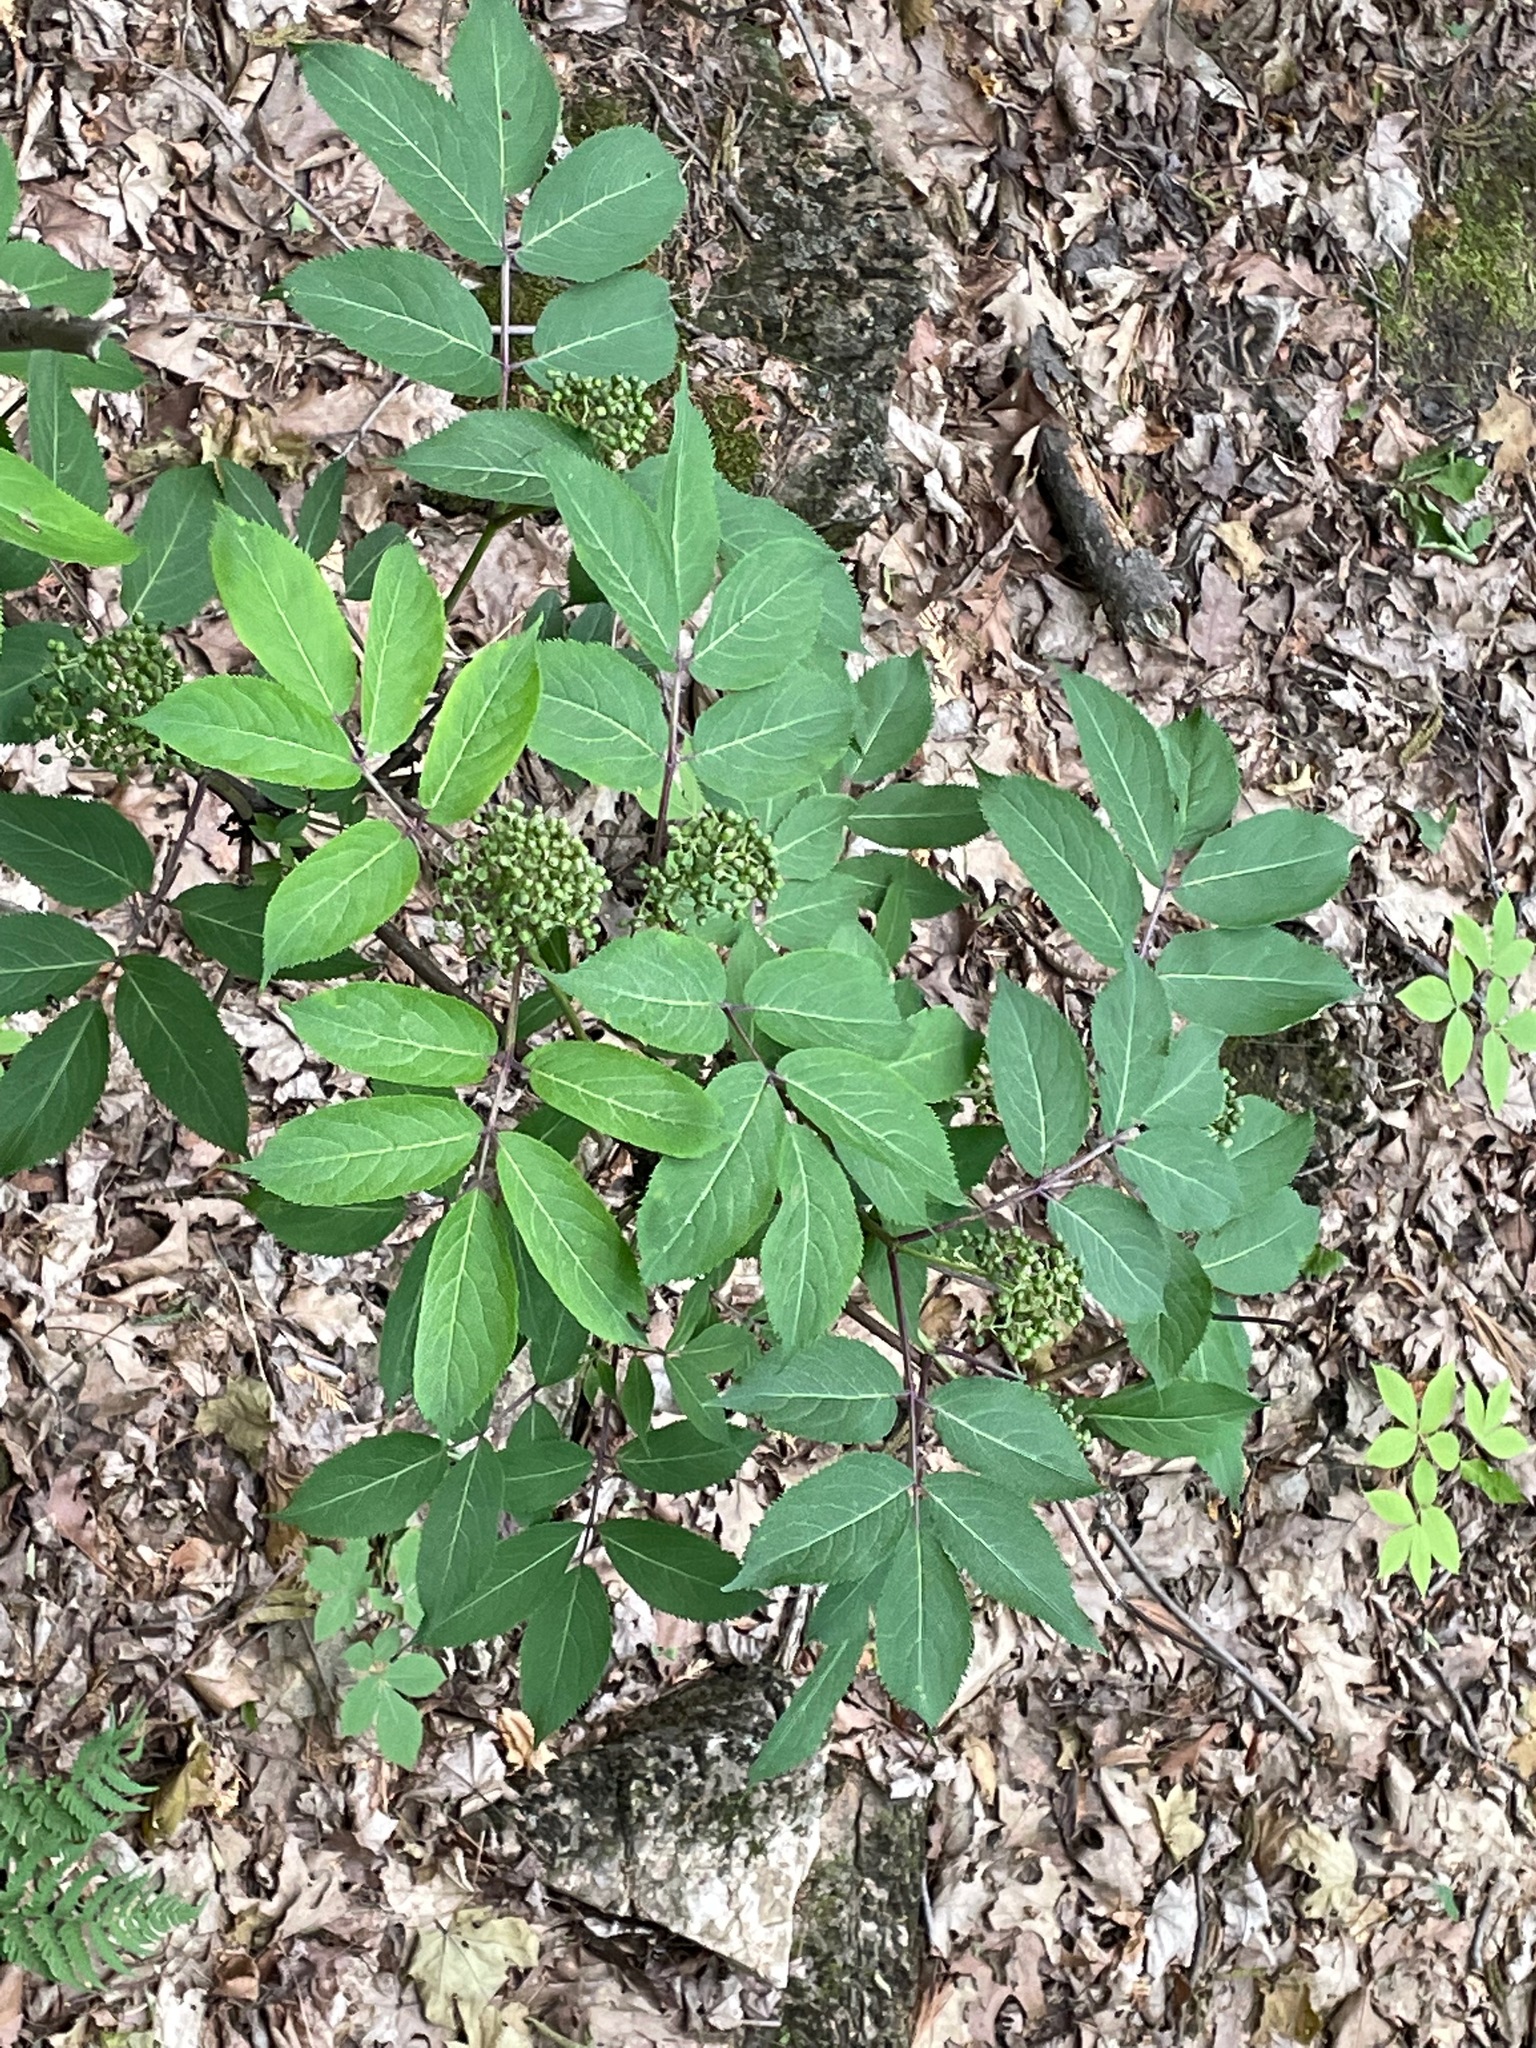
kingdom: Plantae
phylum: Tracheophyta
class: Magnoliopsida
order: Dipsacales
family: Viburnaceae
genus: Sambucus
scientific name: Sambucus racemosa
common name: Red-berried elder
